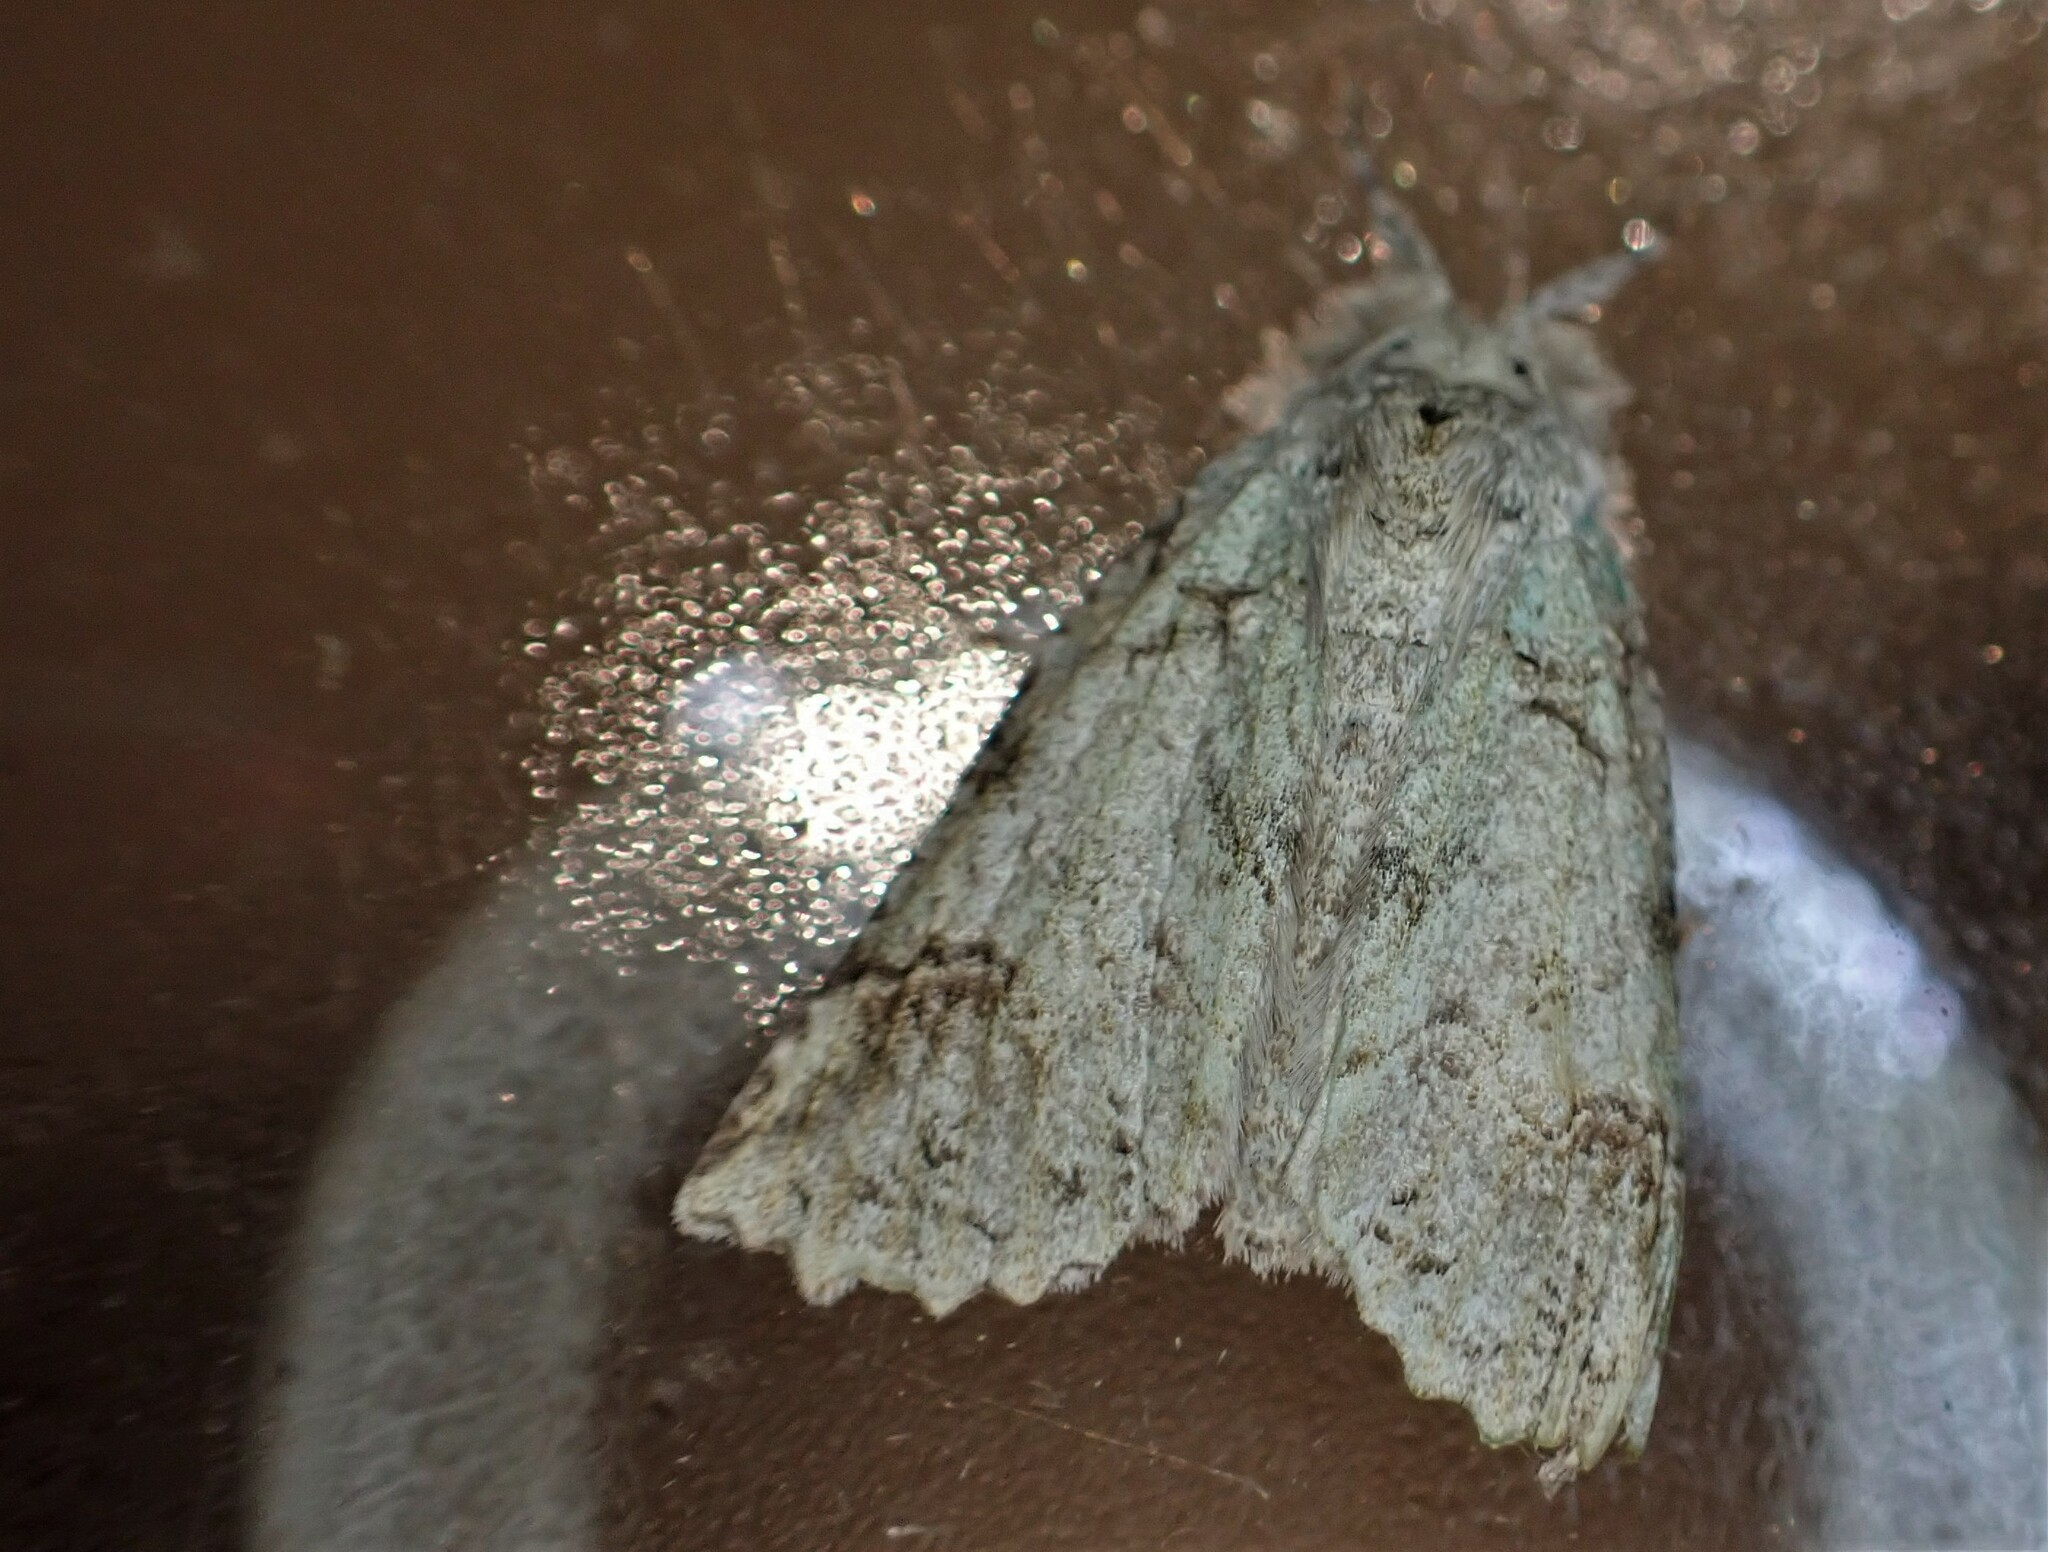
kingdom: Animalia
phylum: Arthropoda
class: Insecta
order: Lepidoptera
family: Geometridae
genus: Declana
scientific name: Declana floccosa
